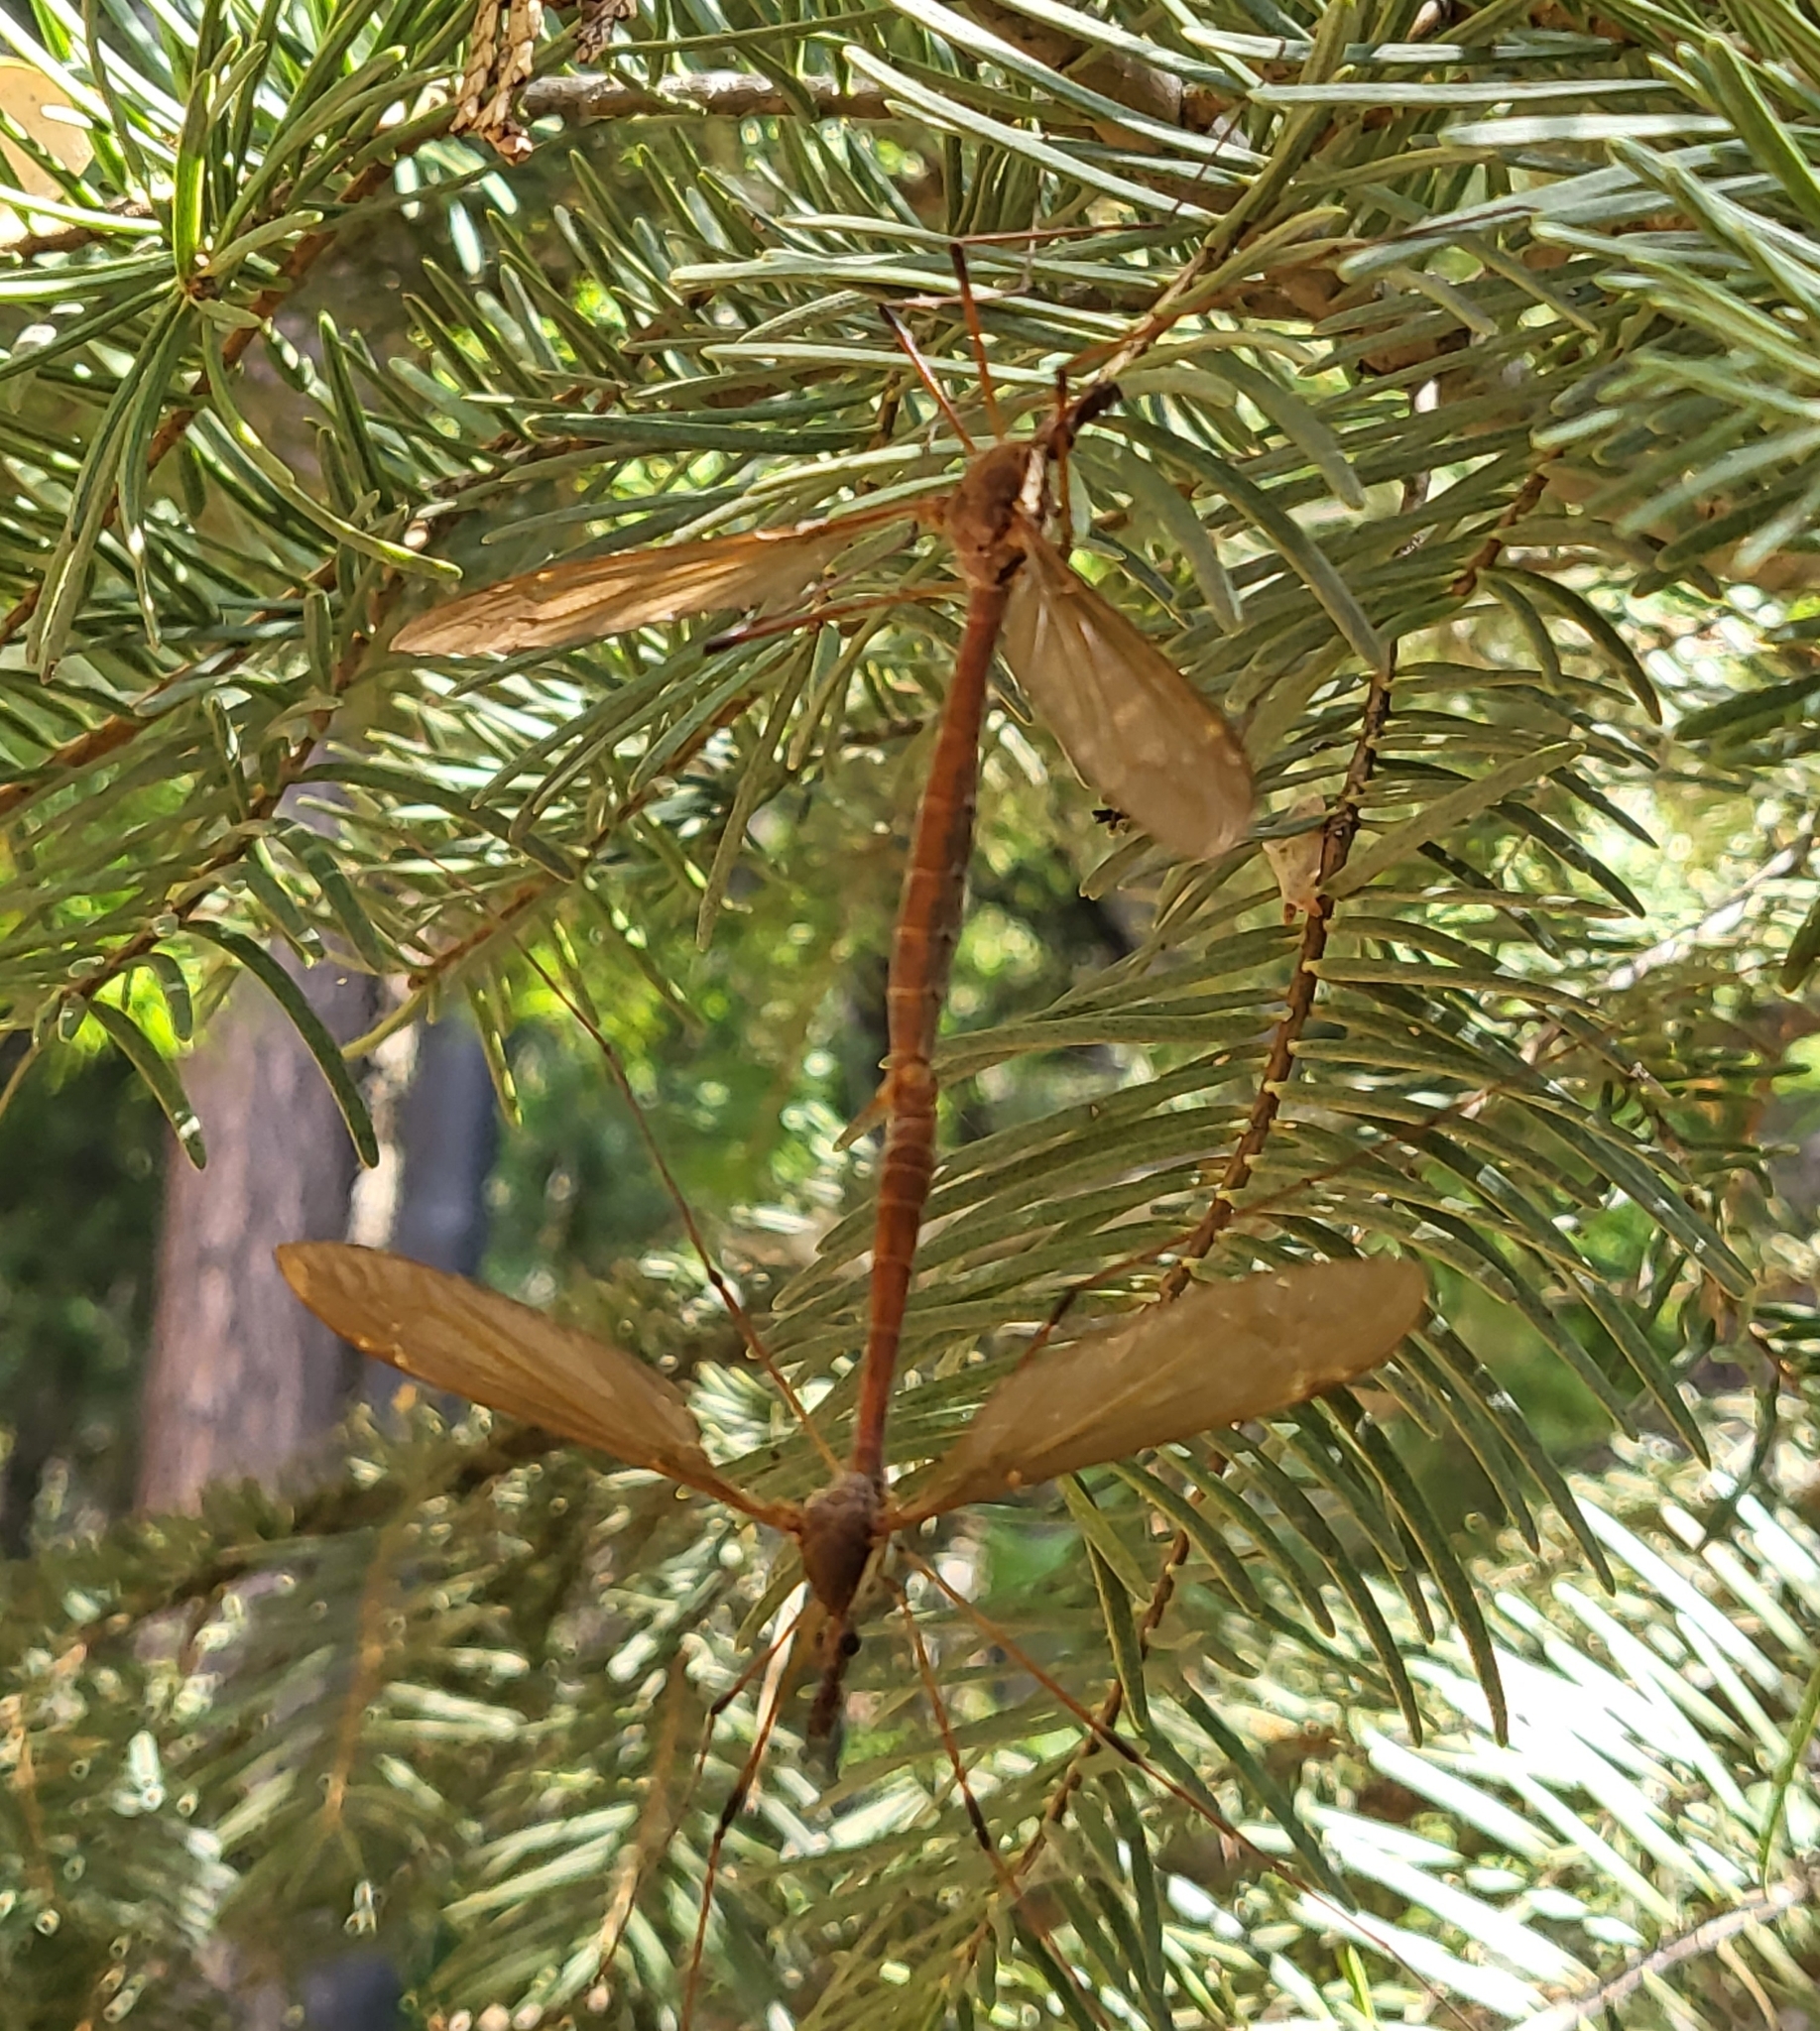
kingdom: Animalia
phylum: Arthropoda
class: Insecta
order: Diptera
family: Tipulidae
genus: Holorusia
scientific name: Holorusia hespera
